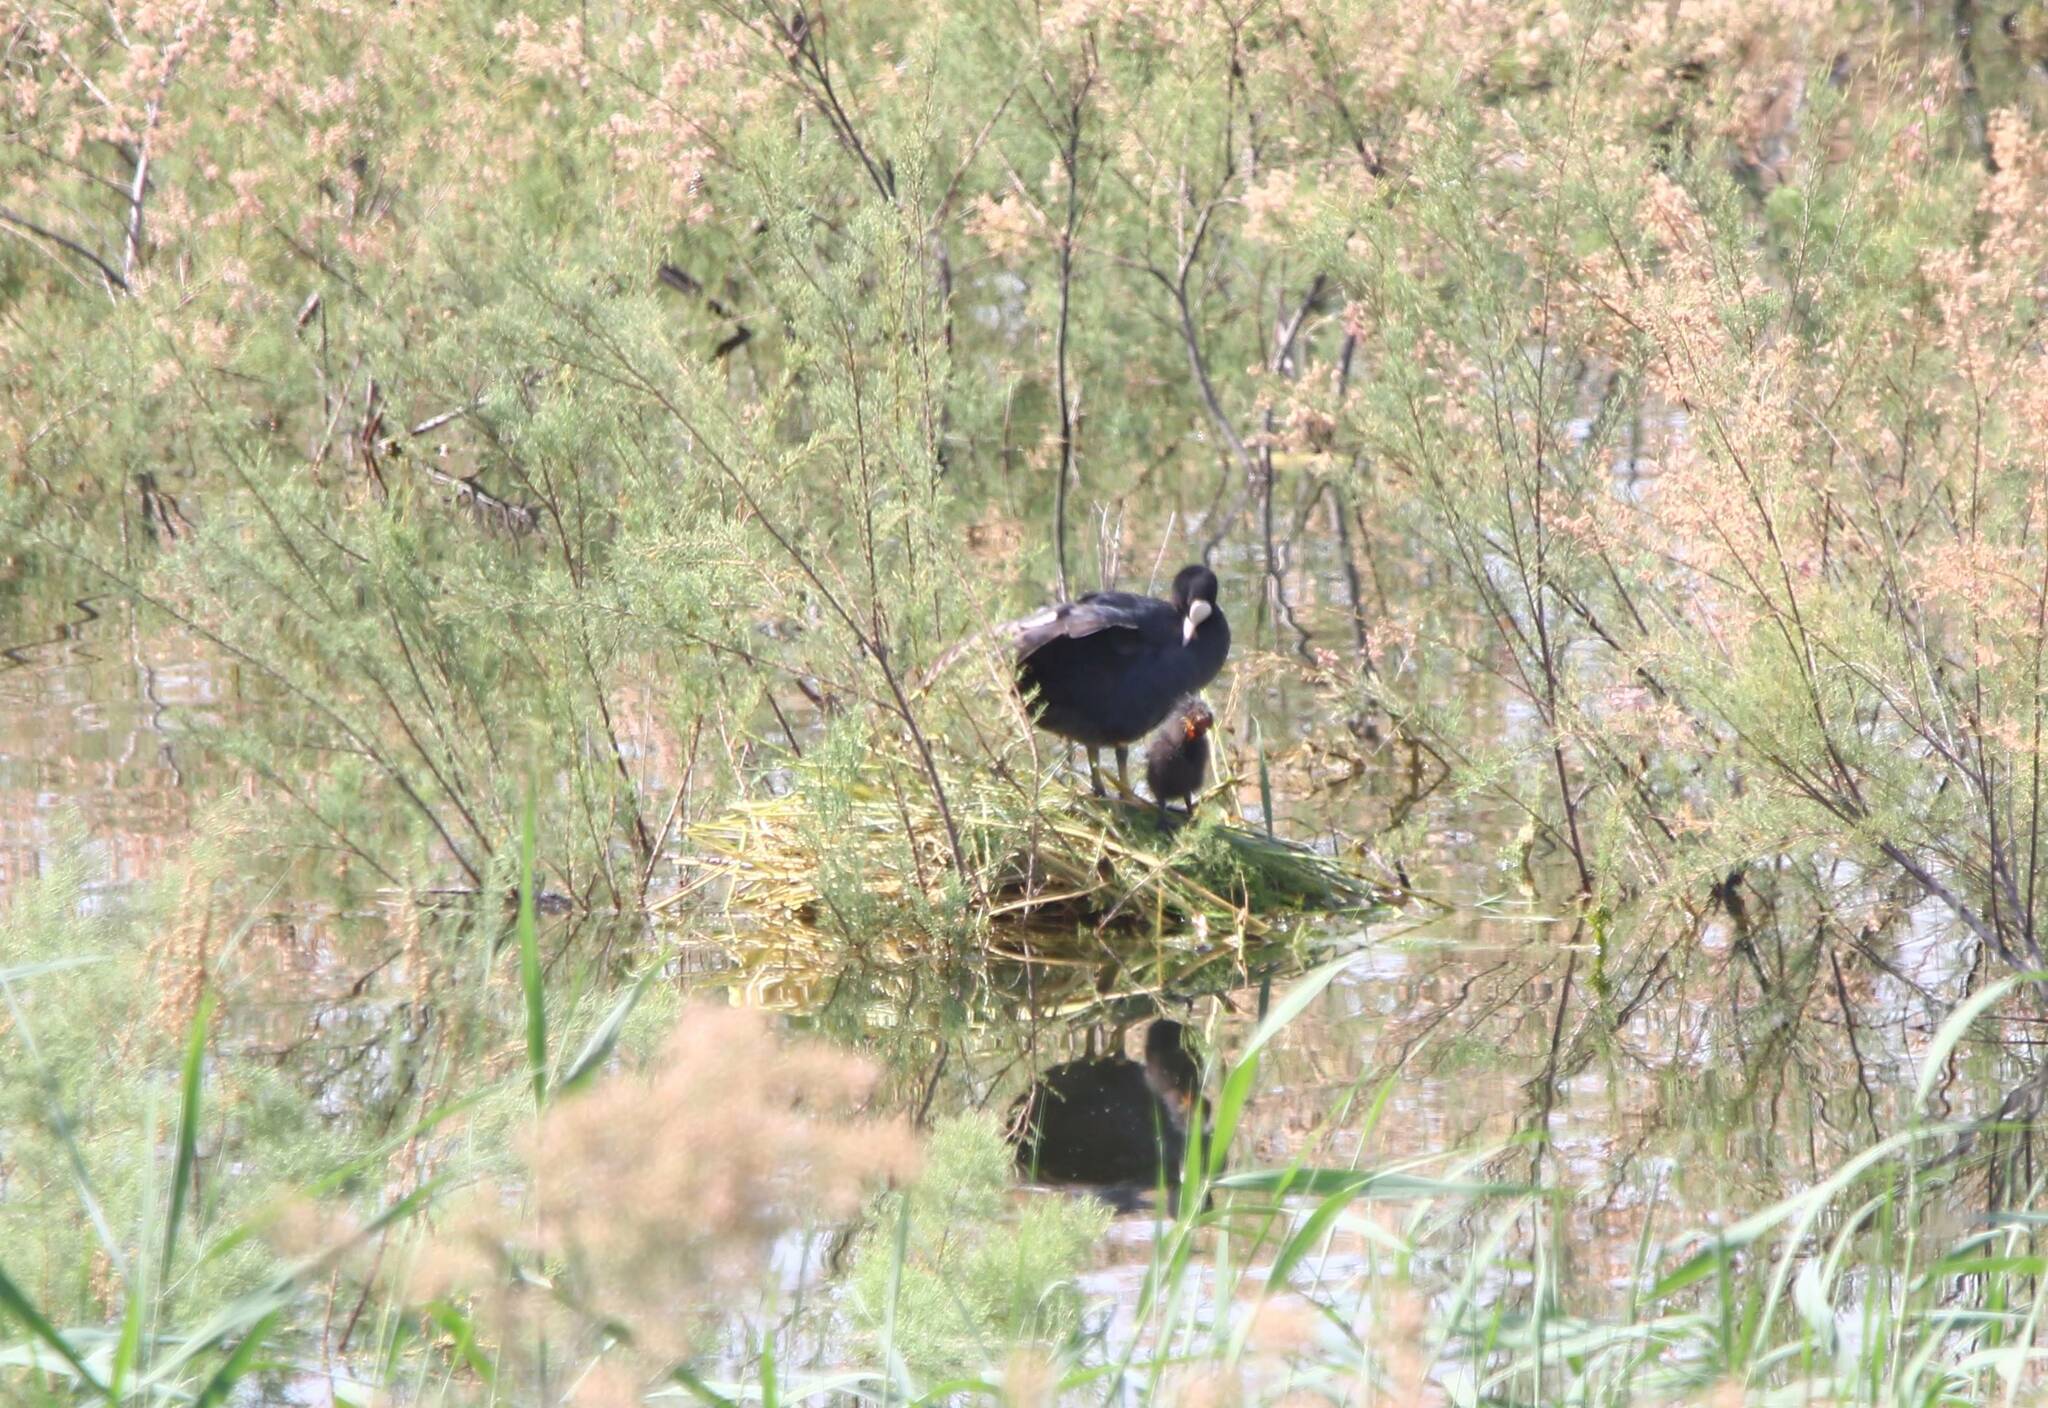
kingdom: Animalia
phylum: Chordata
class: Aves
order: Gruiformes
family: Rallidae
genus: Fulica
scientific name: Fulica atra
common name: Eurasian coot
